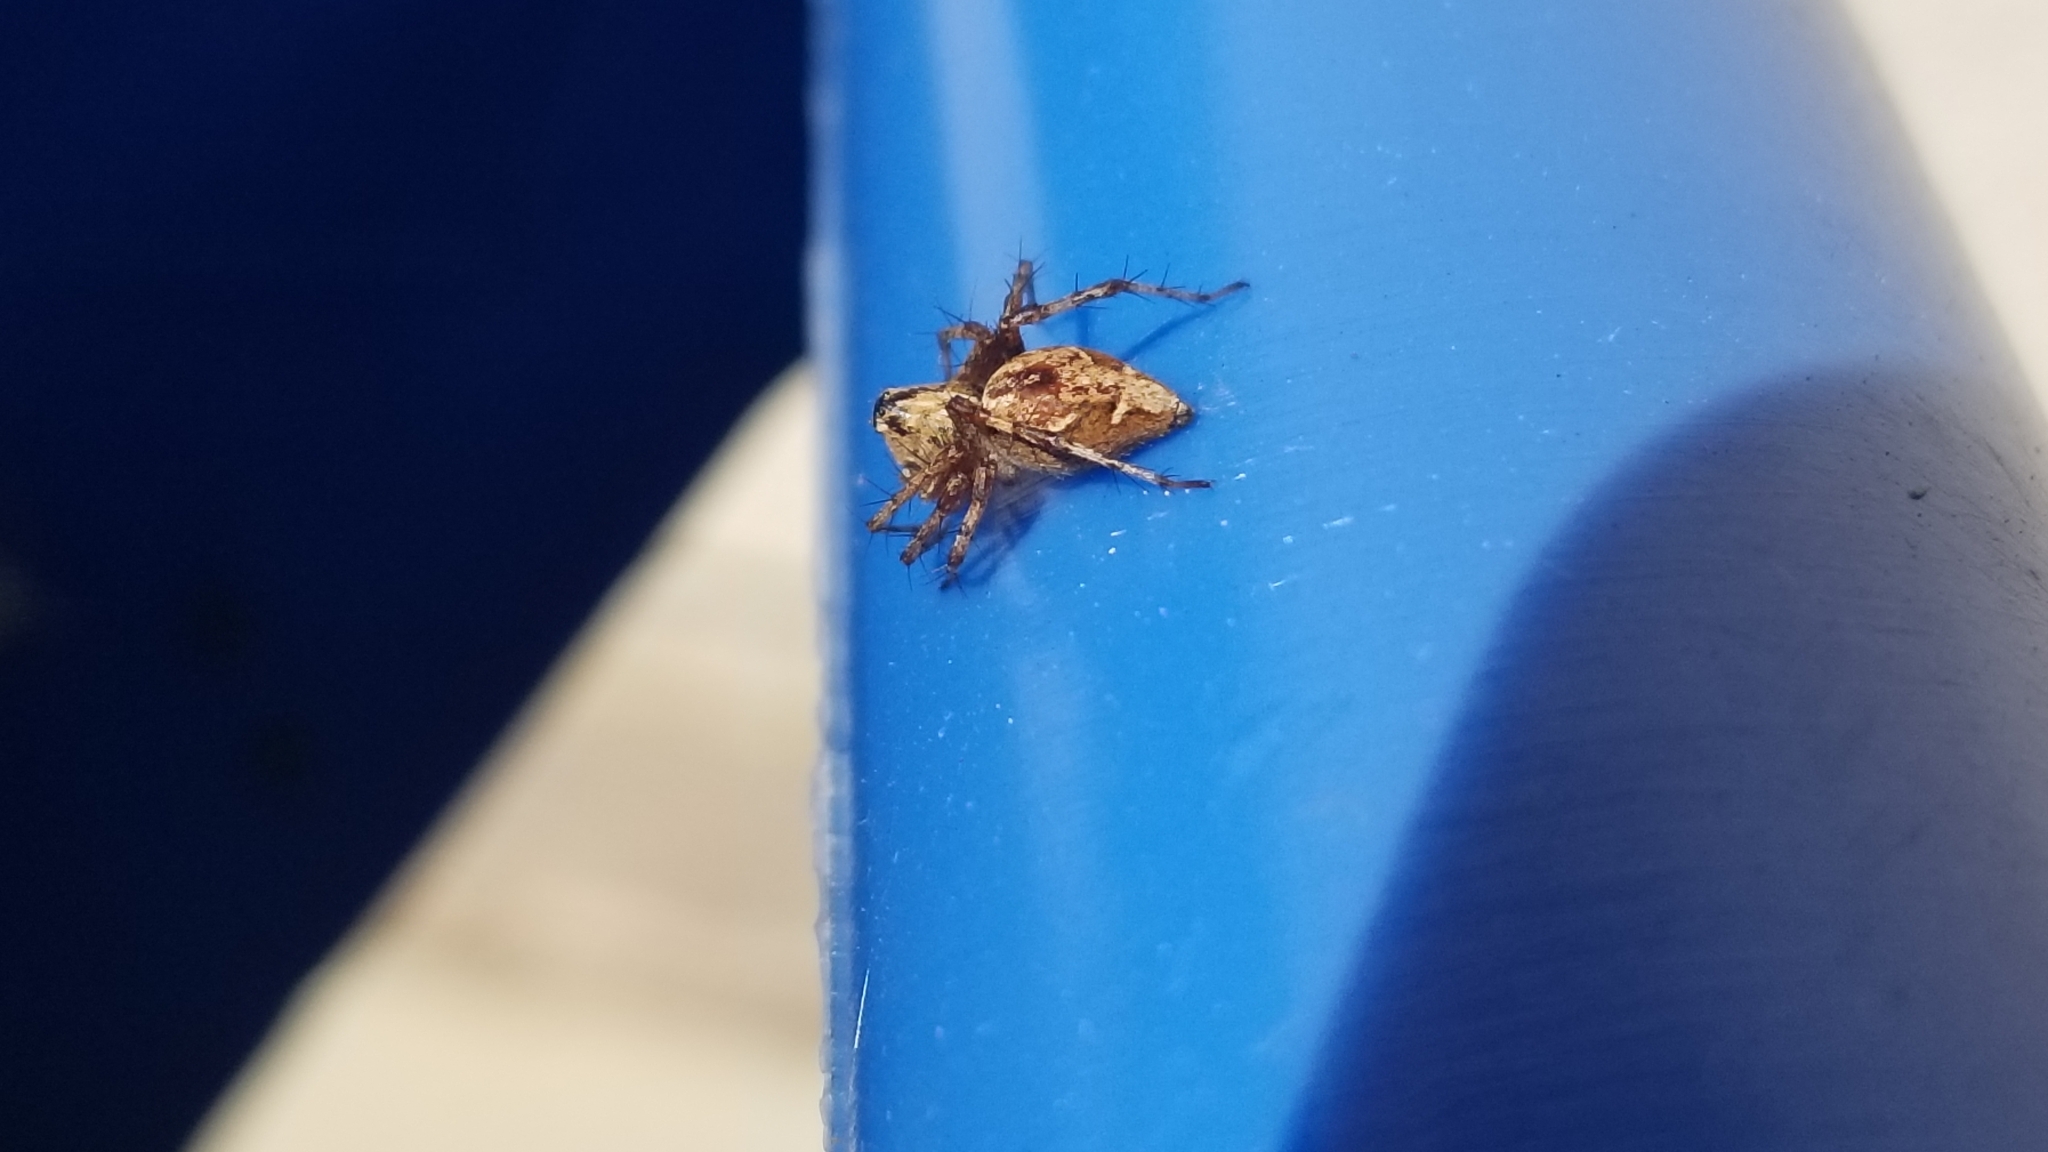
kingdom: Animalia
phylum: Arthropoda
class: Arachnida
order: Araneae
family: Oxyopidae
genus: Oxyopes
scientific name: Oxyopes scalaris
